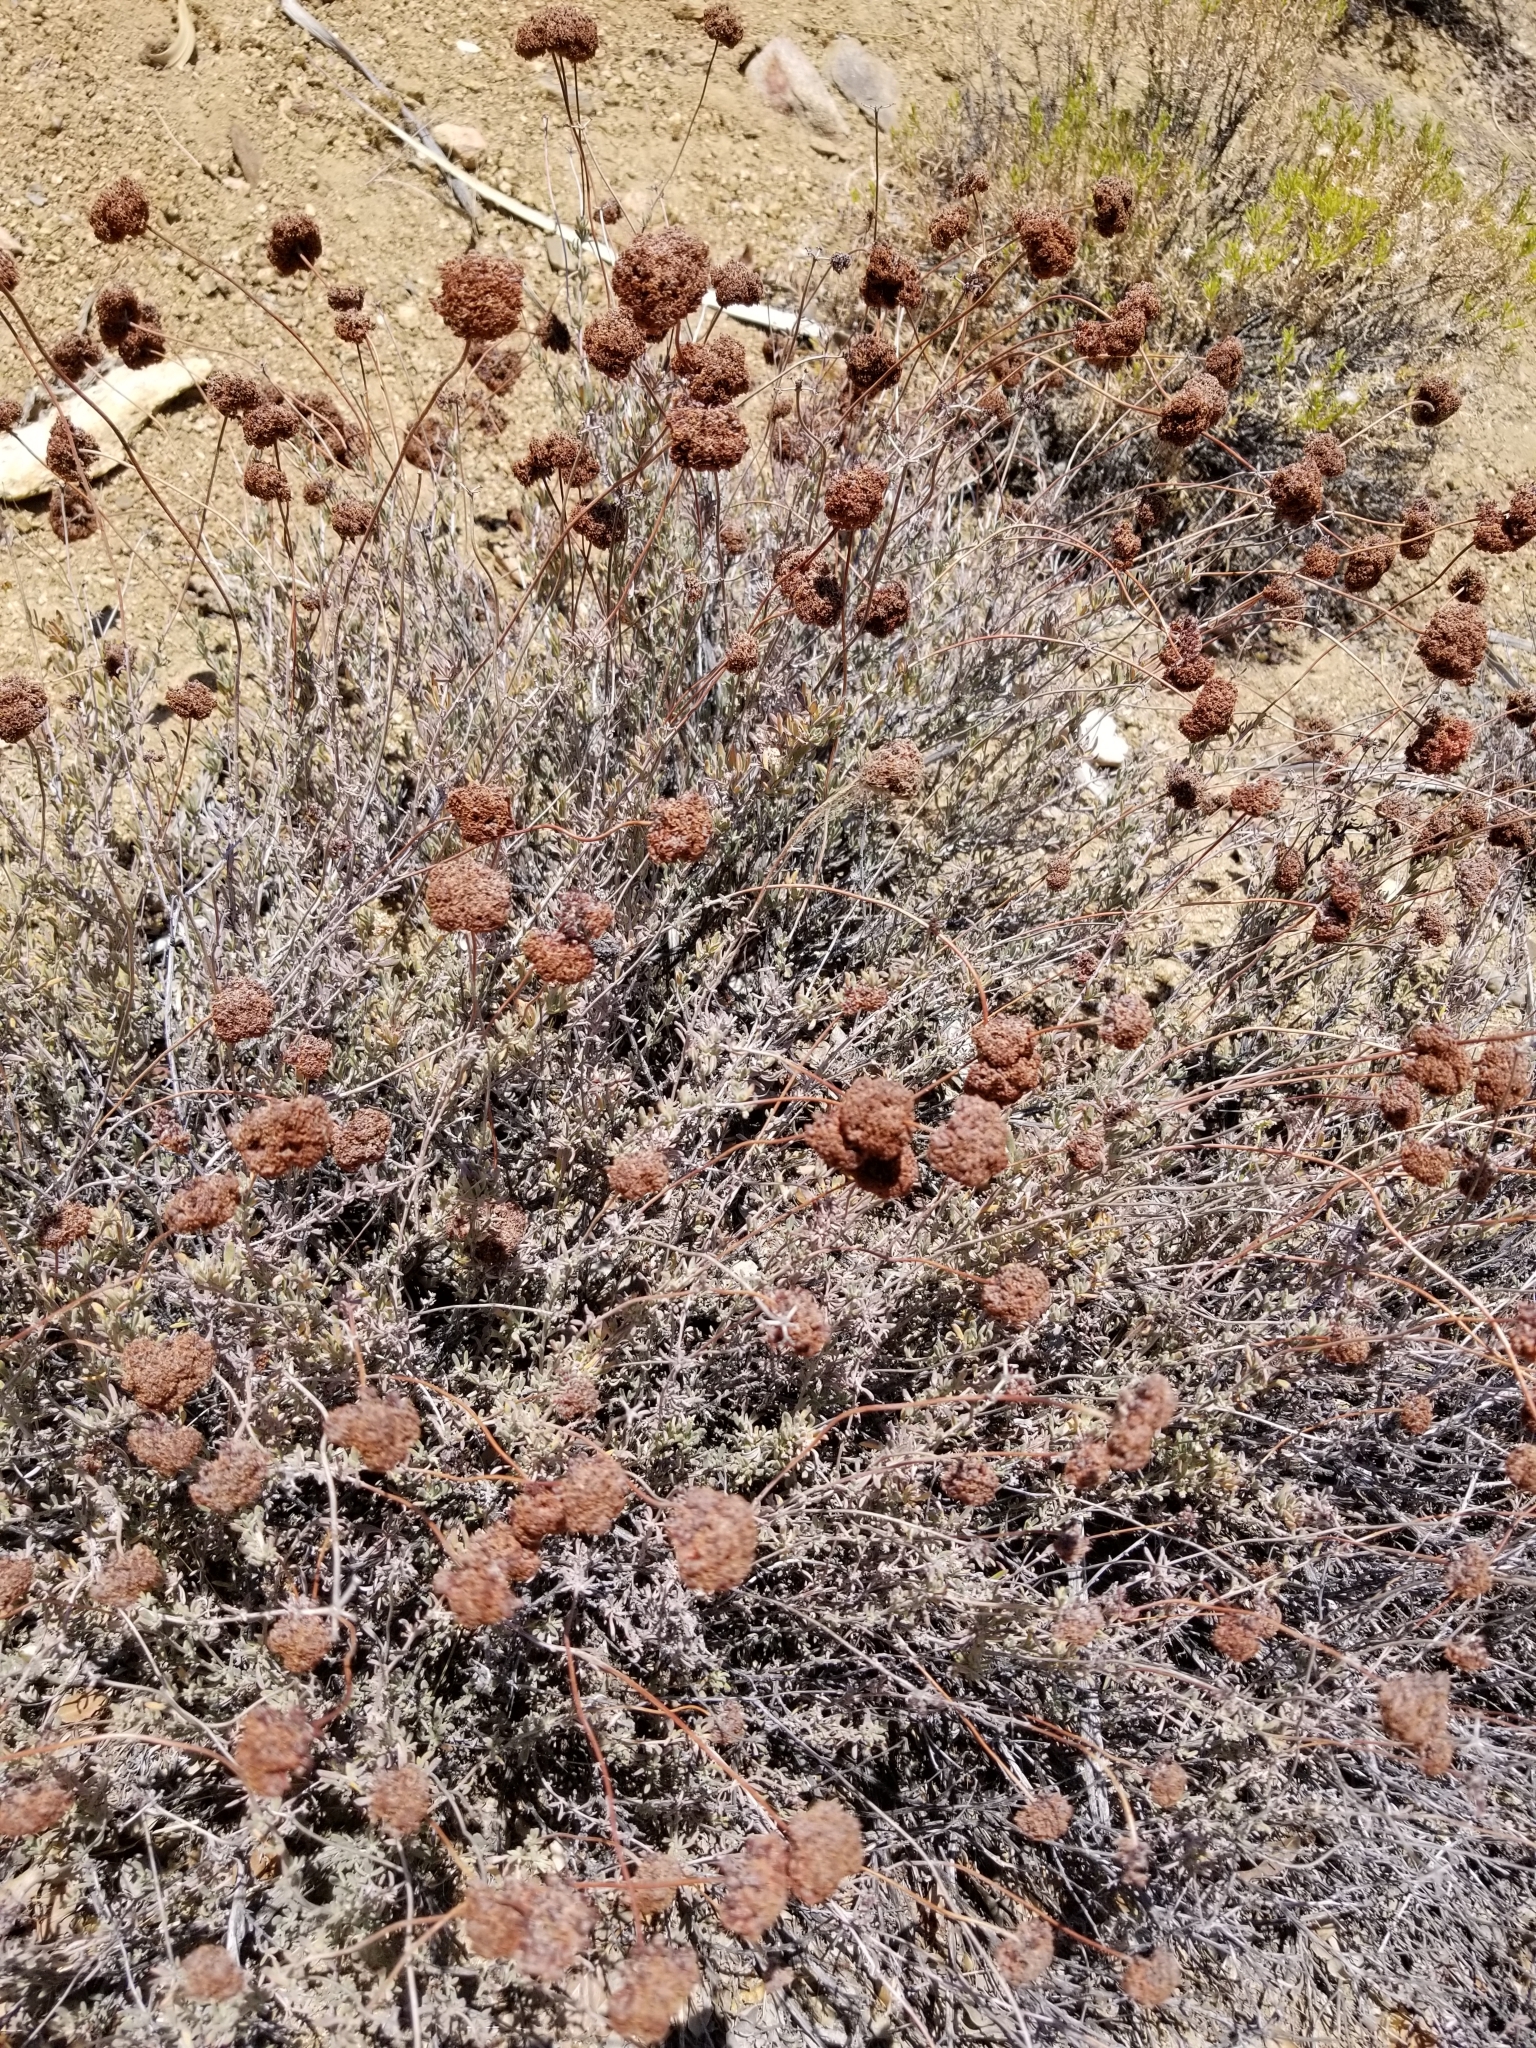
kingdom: Plantae
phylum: Tracheophyta
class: Magnoliopsida
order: Caryophyllales
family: Polygonaceae
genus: Eriogonum
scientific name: Eriogonum fasciculatum
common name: California wild buckwheat
